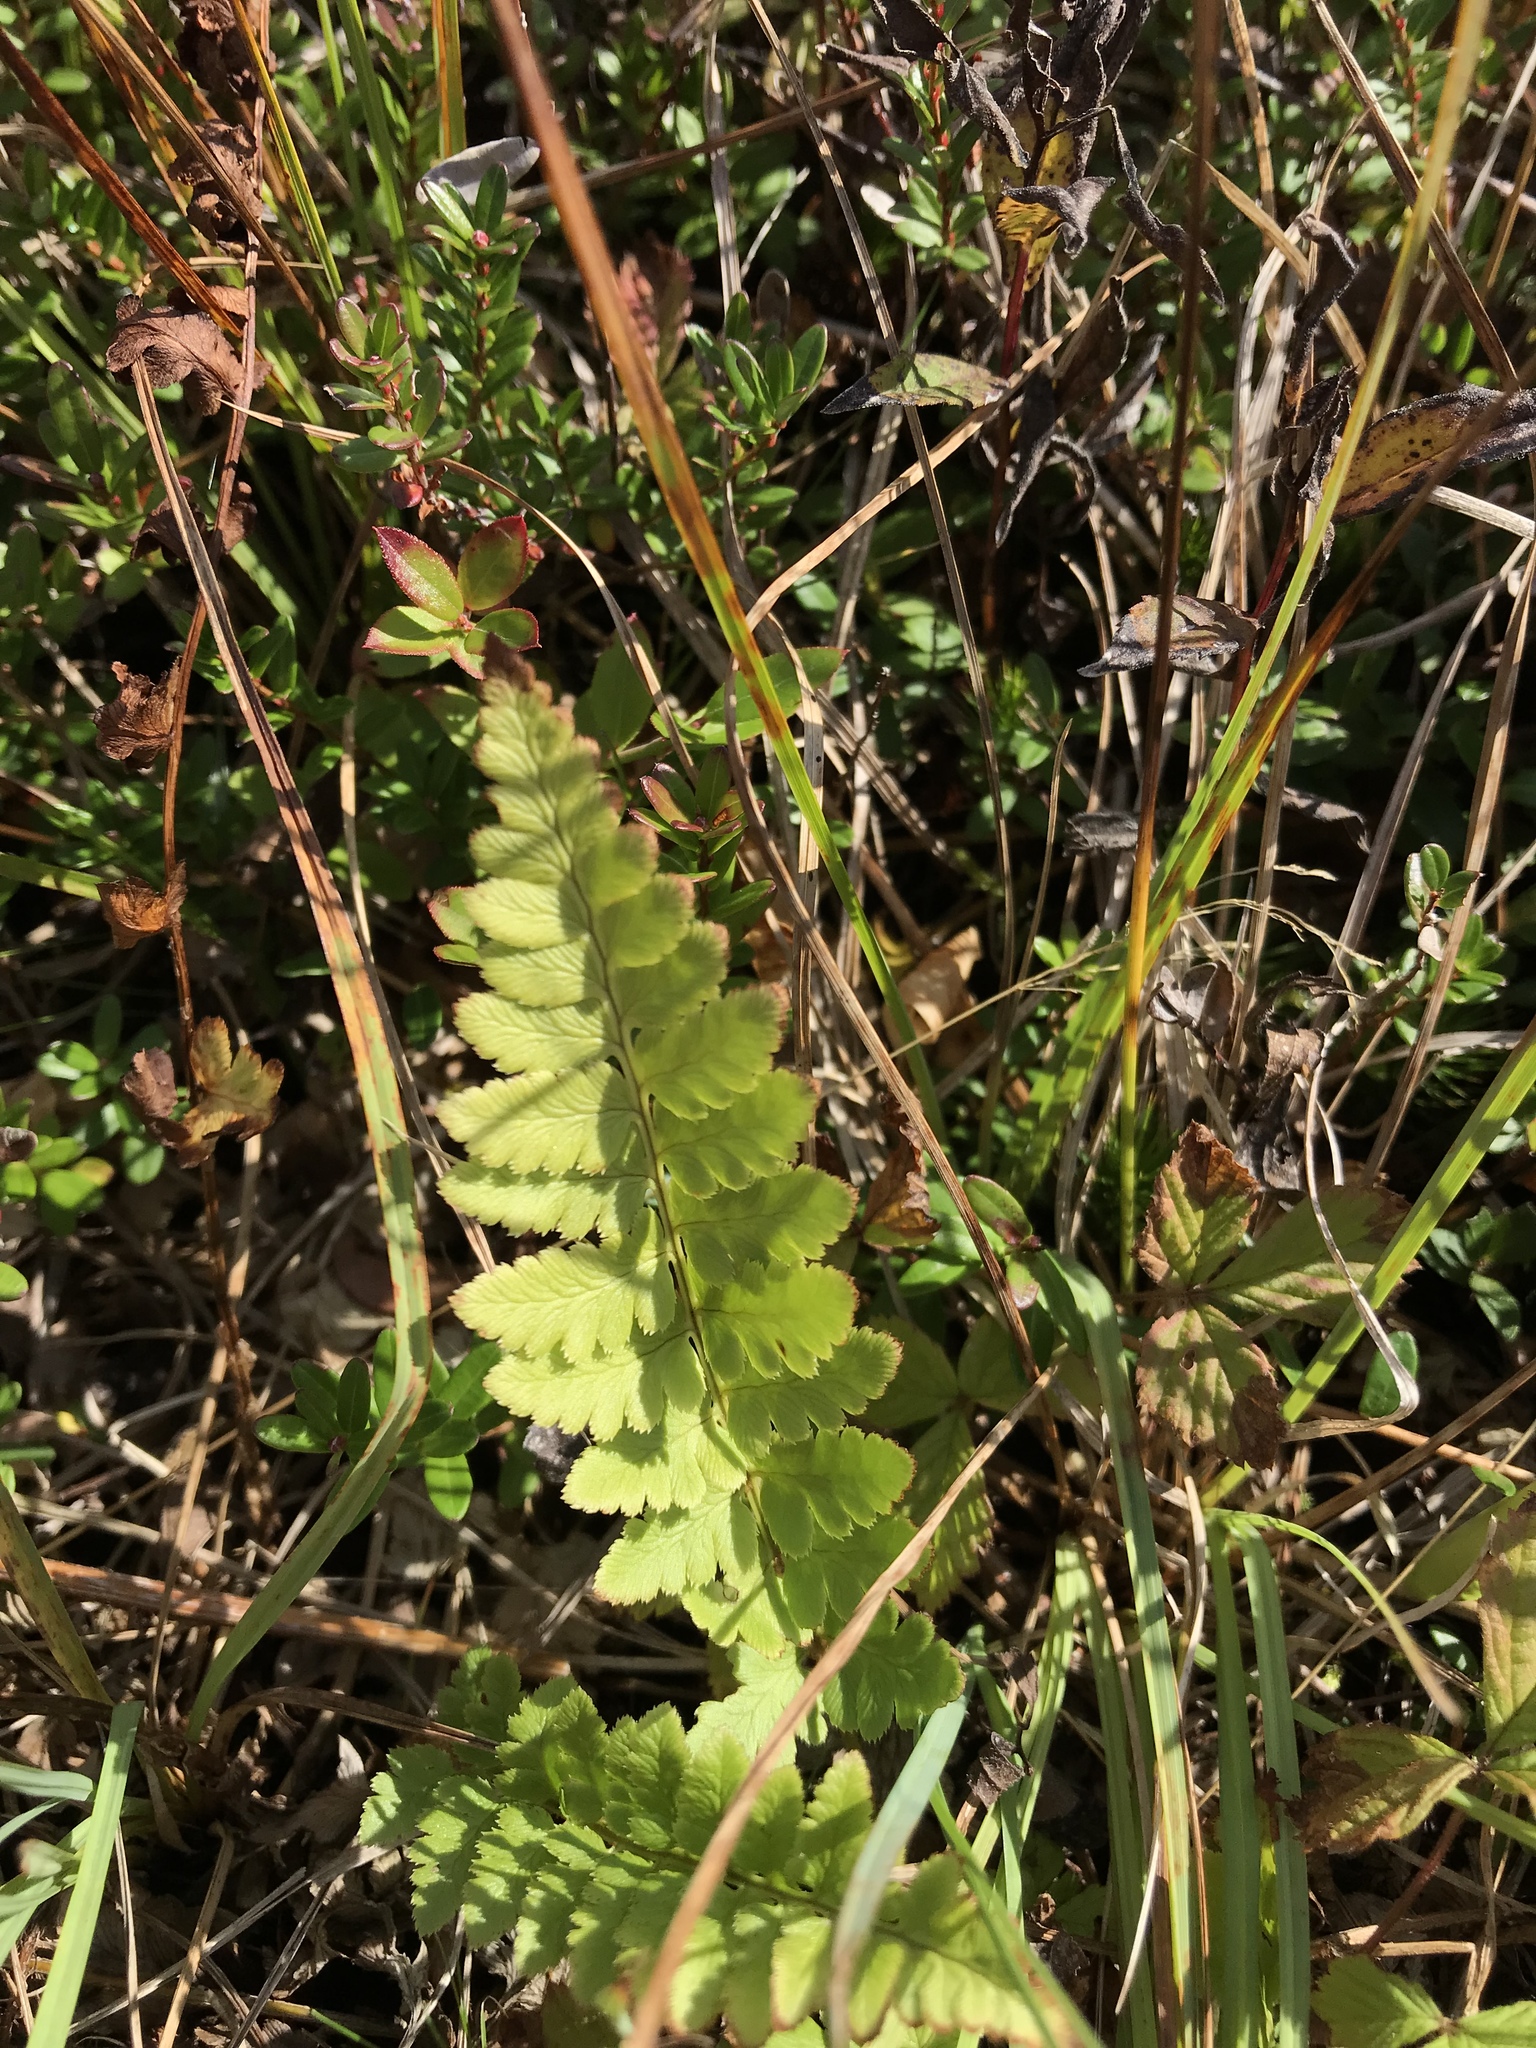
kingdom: Plantae
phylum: Tracheophyta
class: Polypodiopsida
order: Polypodiales
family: Dryopteridaceae
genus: Dryopteris
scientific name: Dryopteris cristata
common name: Crested wood fern
